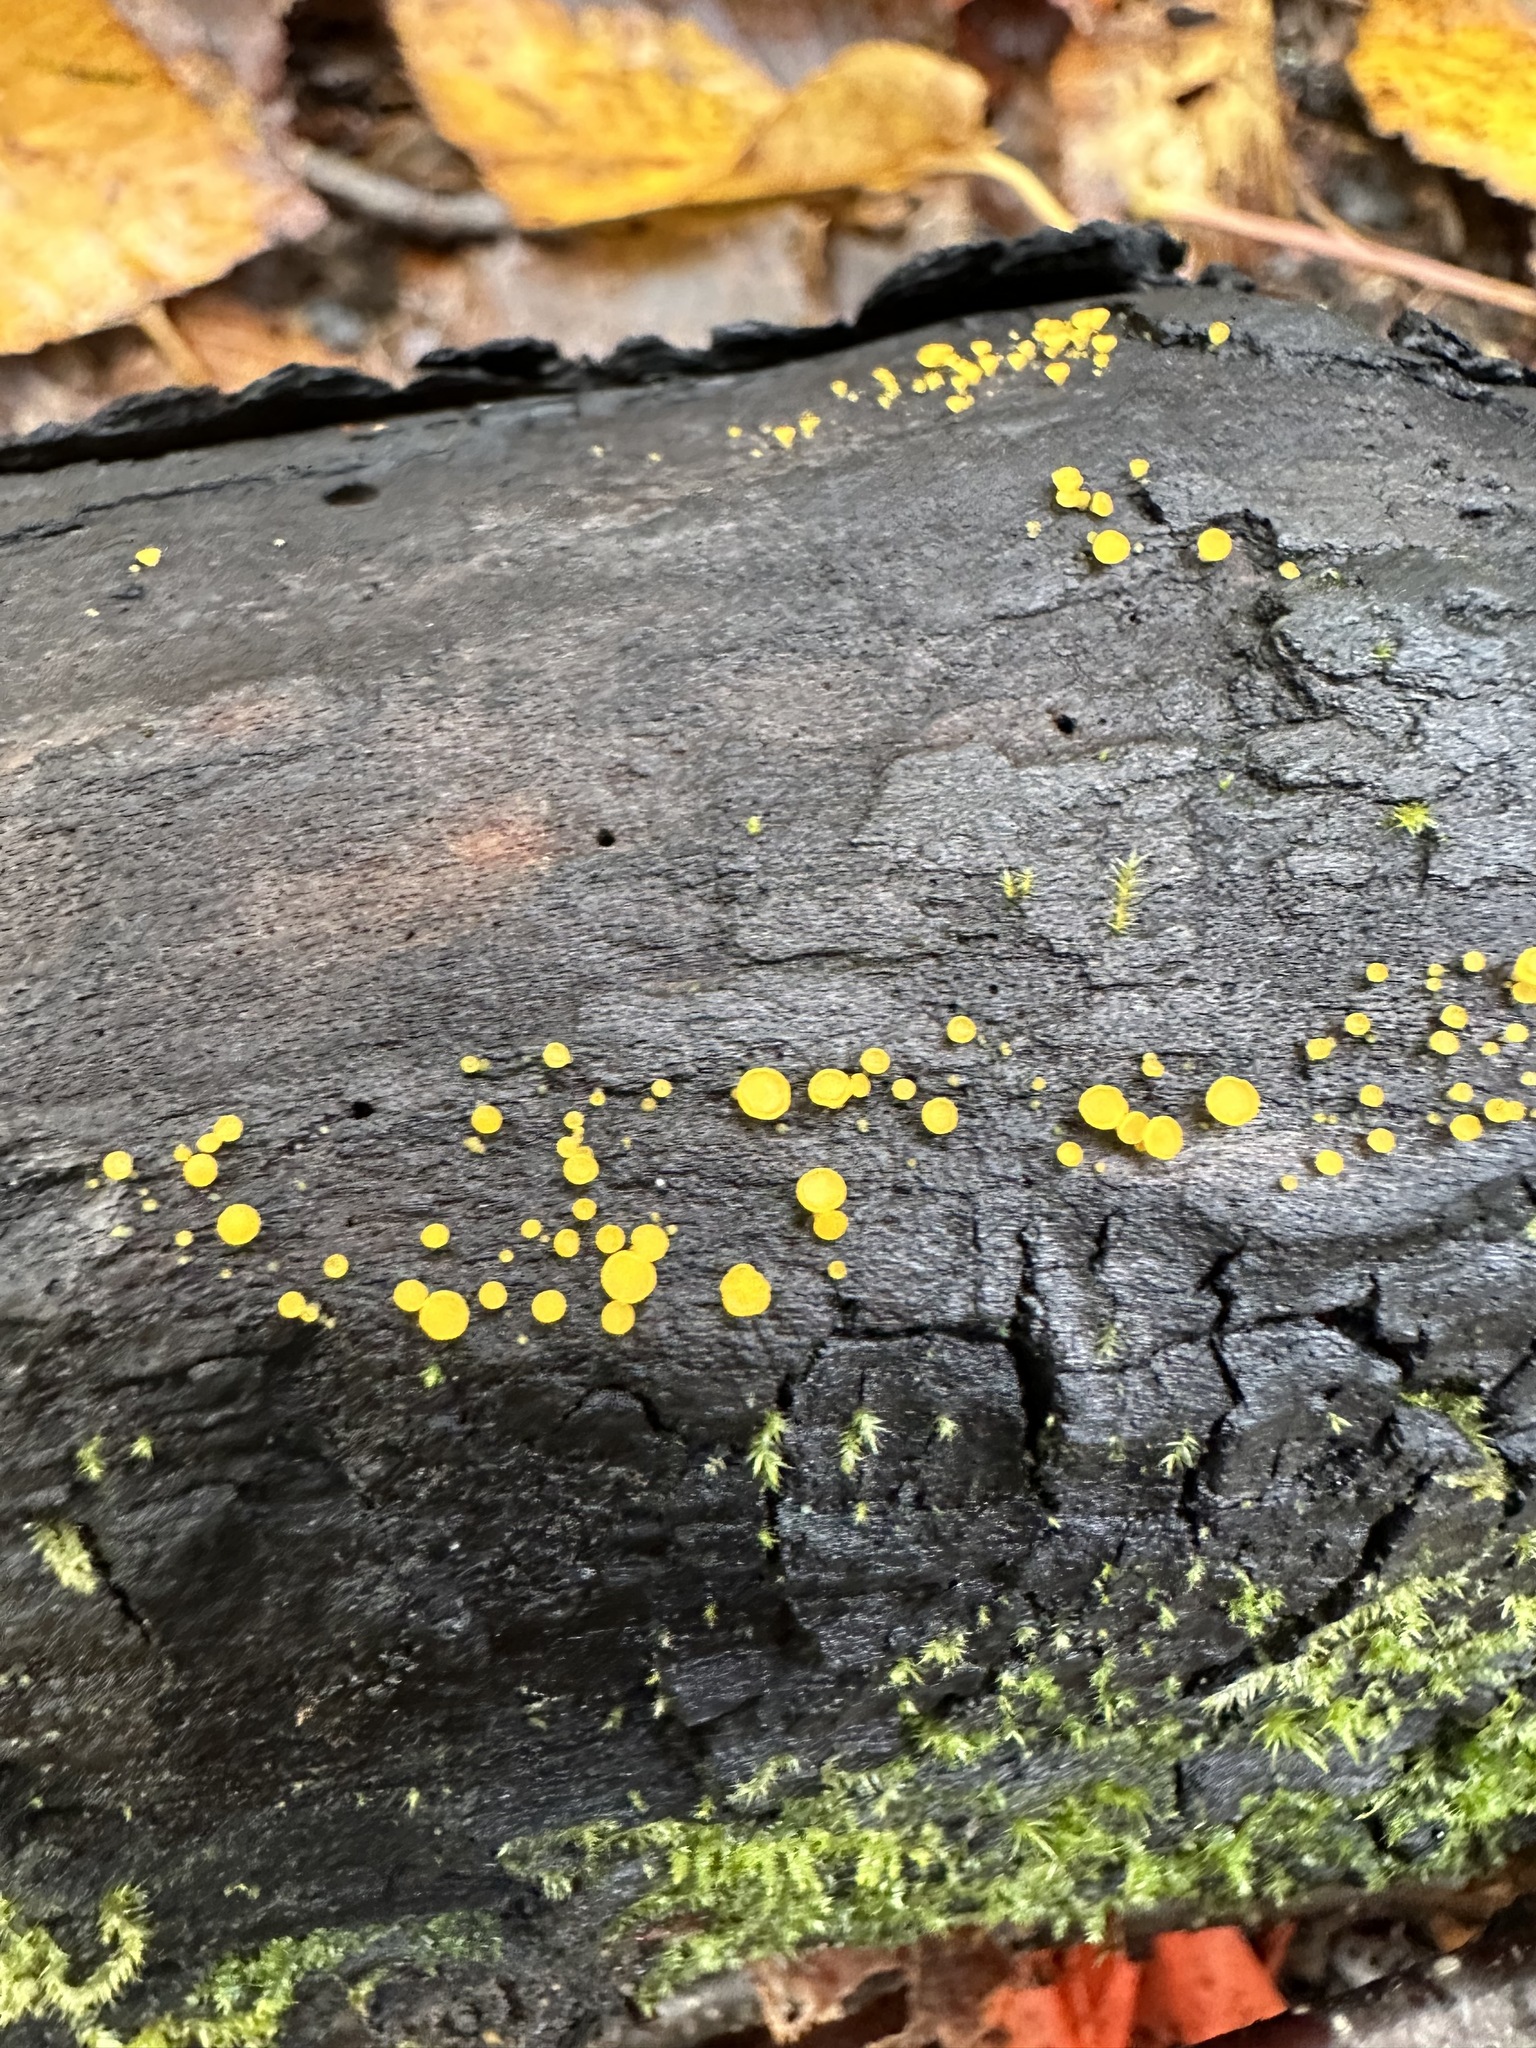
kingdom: Fungi
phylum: Ascomycota
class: Leotiomycetes
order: Helotiales
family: Pezizellaceae
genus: Calycina
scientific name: Calycina citrina
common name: Yellow fairy cups
